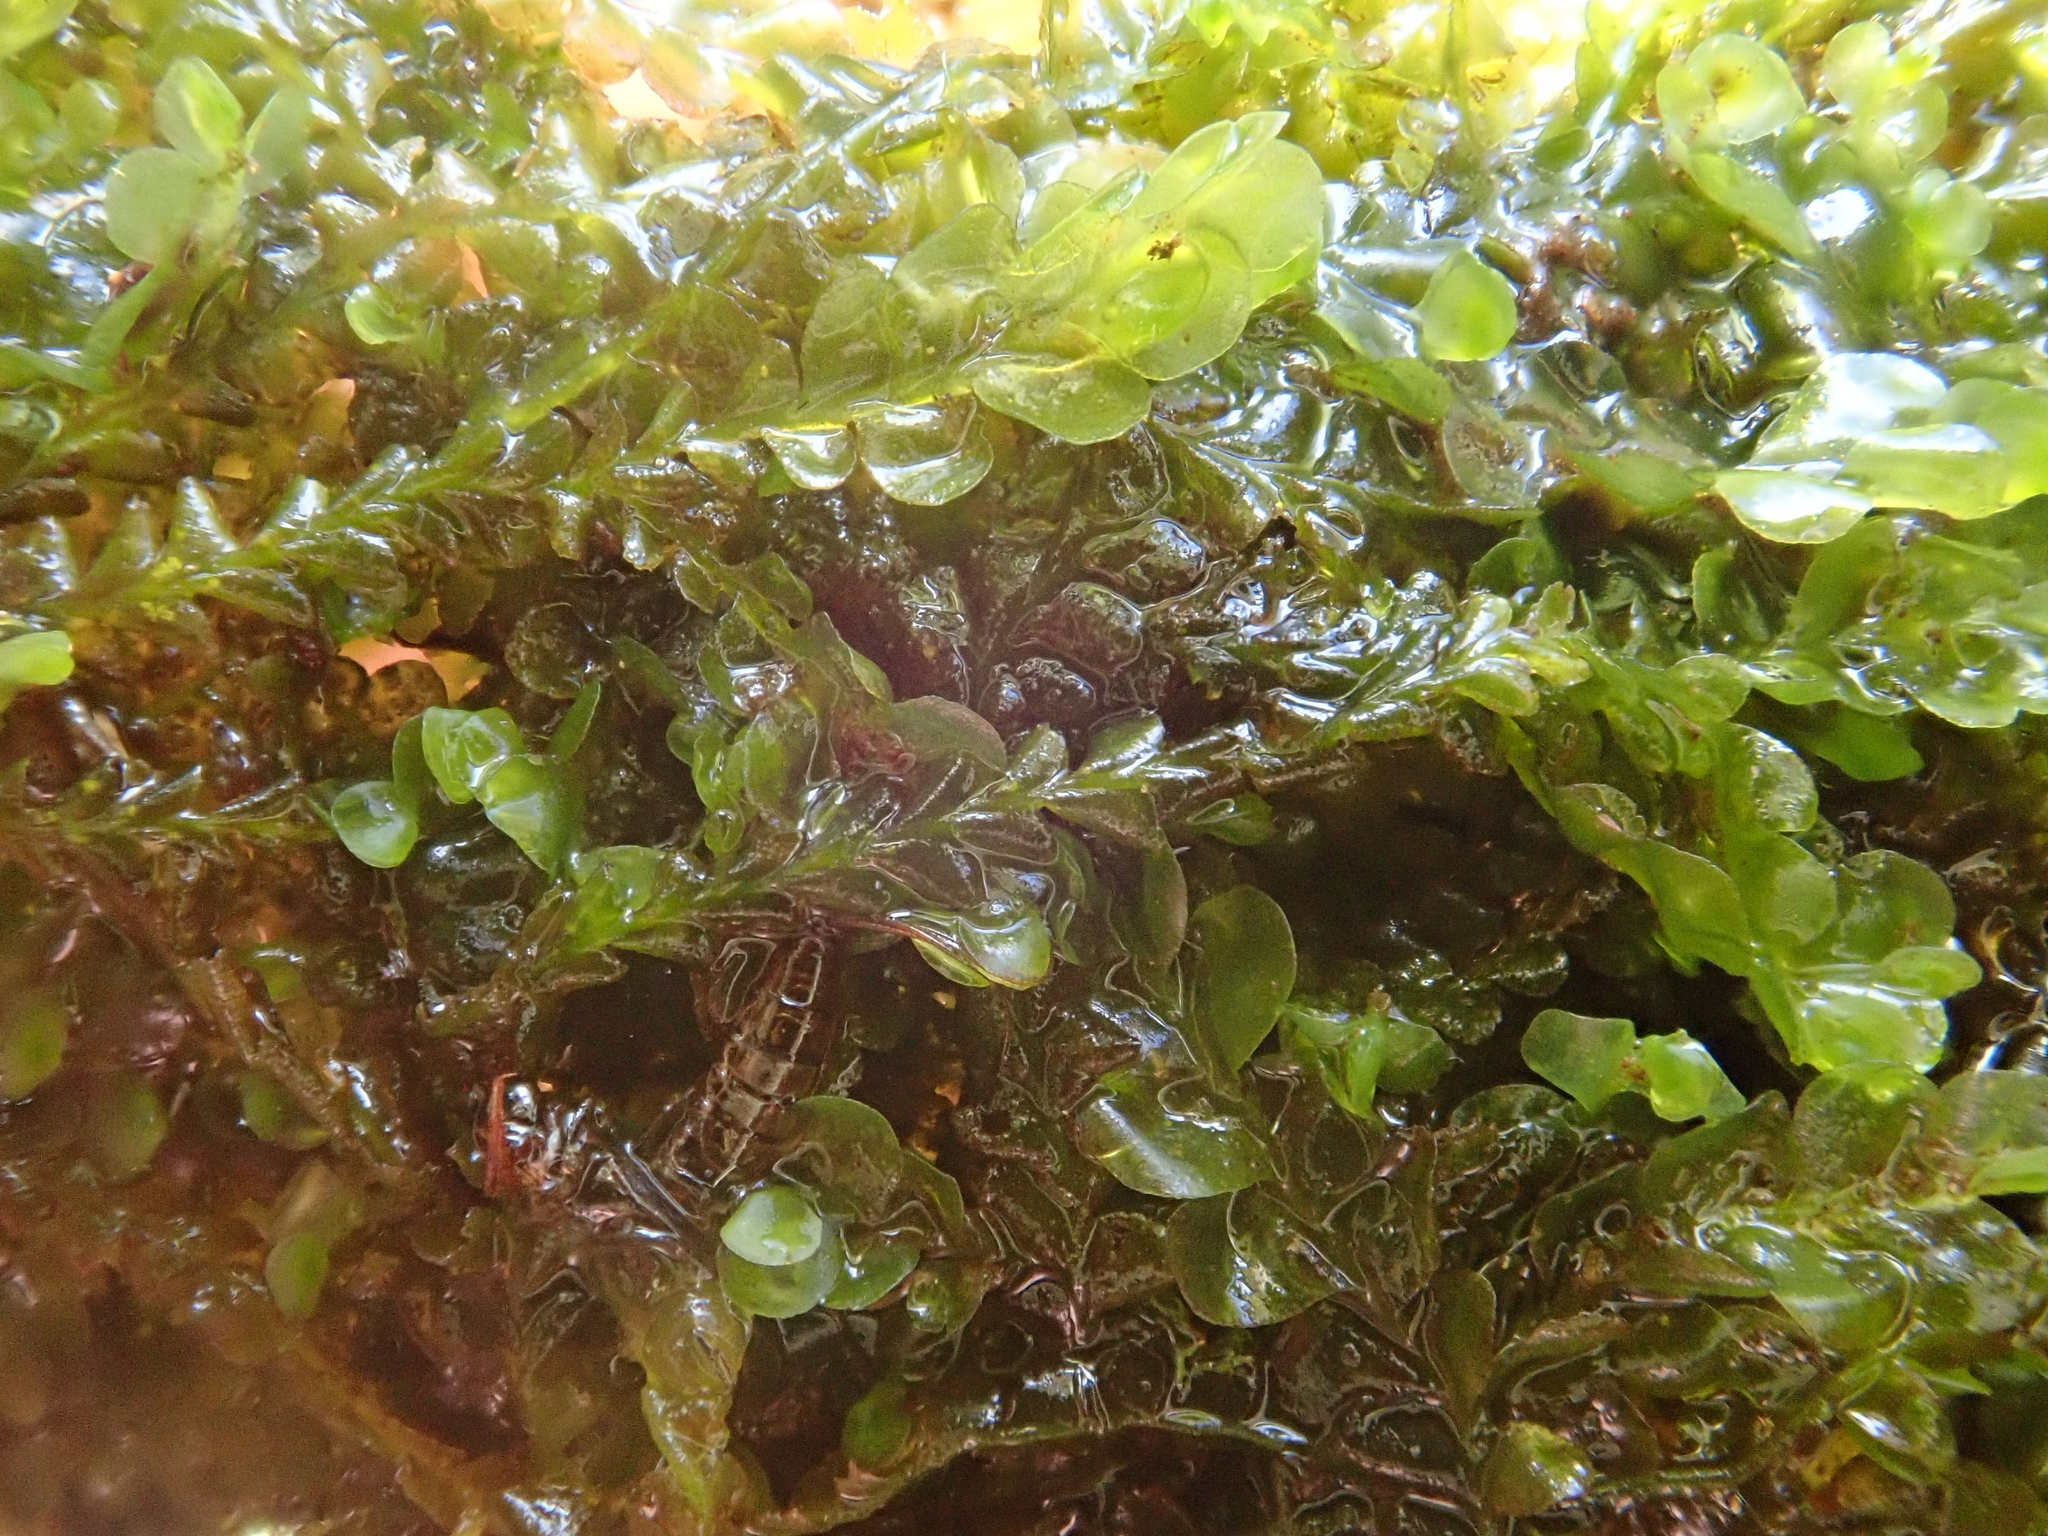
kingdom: Plantae
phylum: Marchantiophyta
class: Jungermanniopsida
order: Jungermanniales
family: Lophocoleaceae
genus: Chiloscyphus
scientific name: Chiloscyphus polyanthos
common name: Square-leaved crestwort
